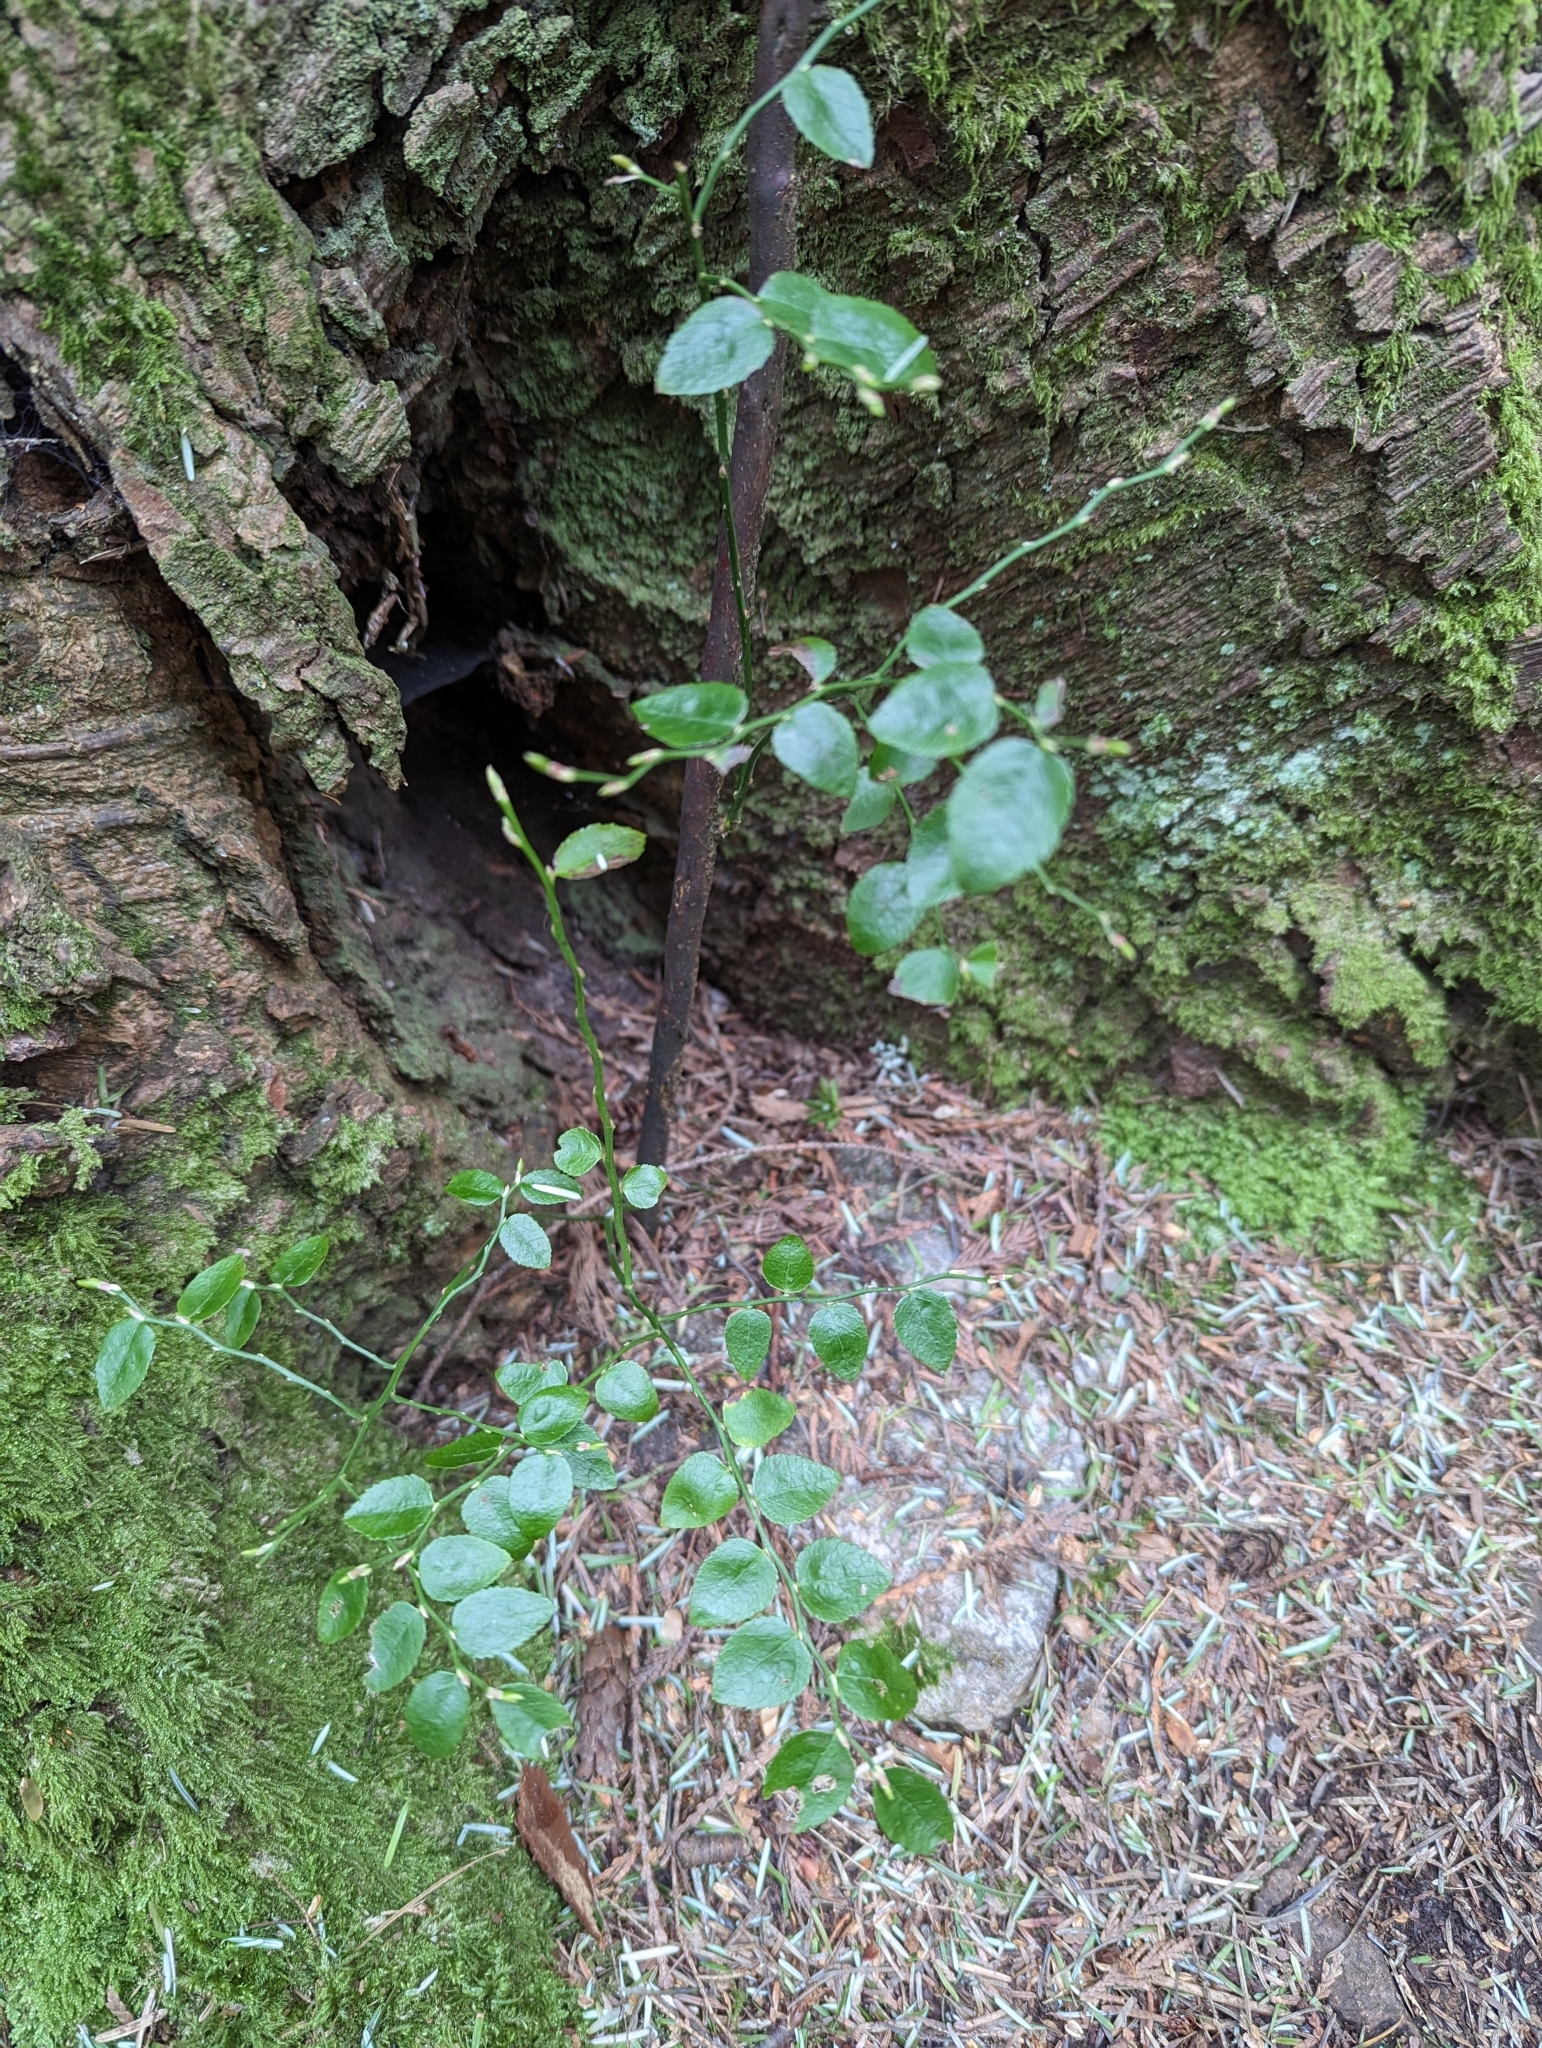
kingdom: Plantae
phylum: Tracheophyta
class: Magnoliopsida
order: Ericales
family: Ericaceae
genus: Vaccinium
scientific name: Vaccinium parvifolium
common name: Red-huckleberry
